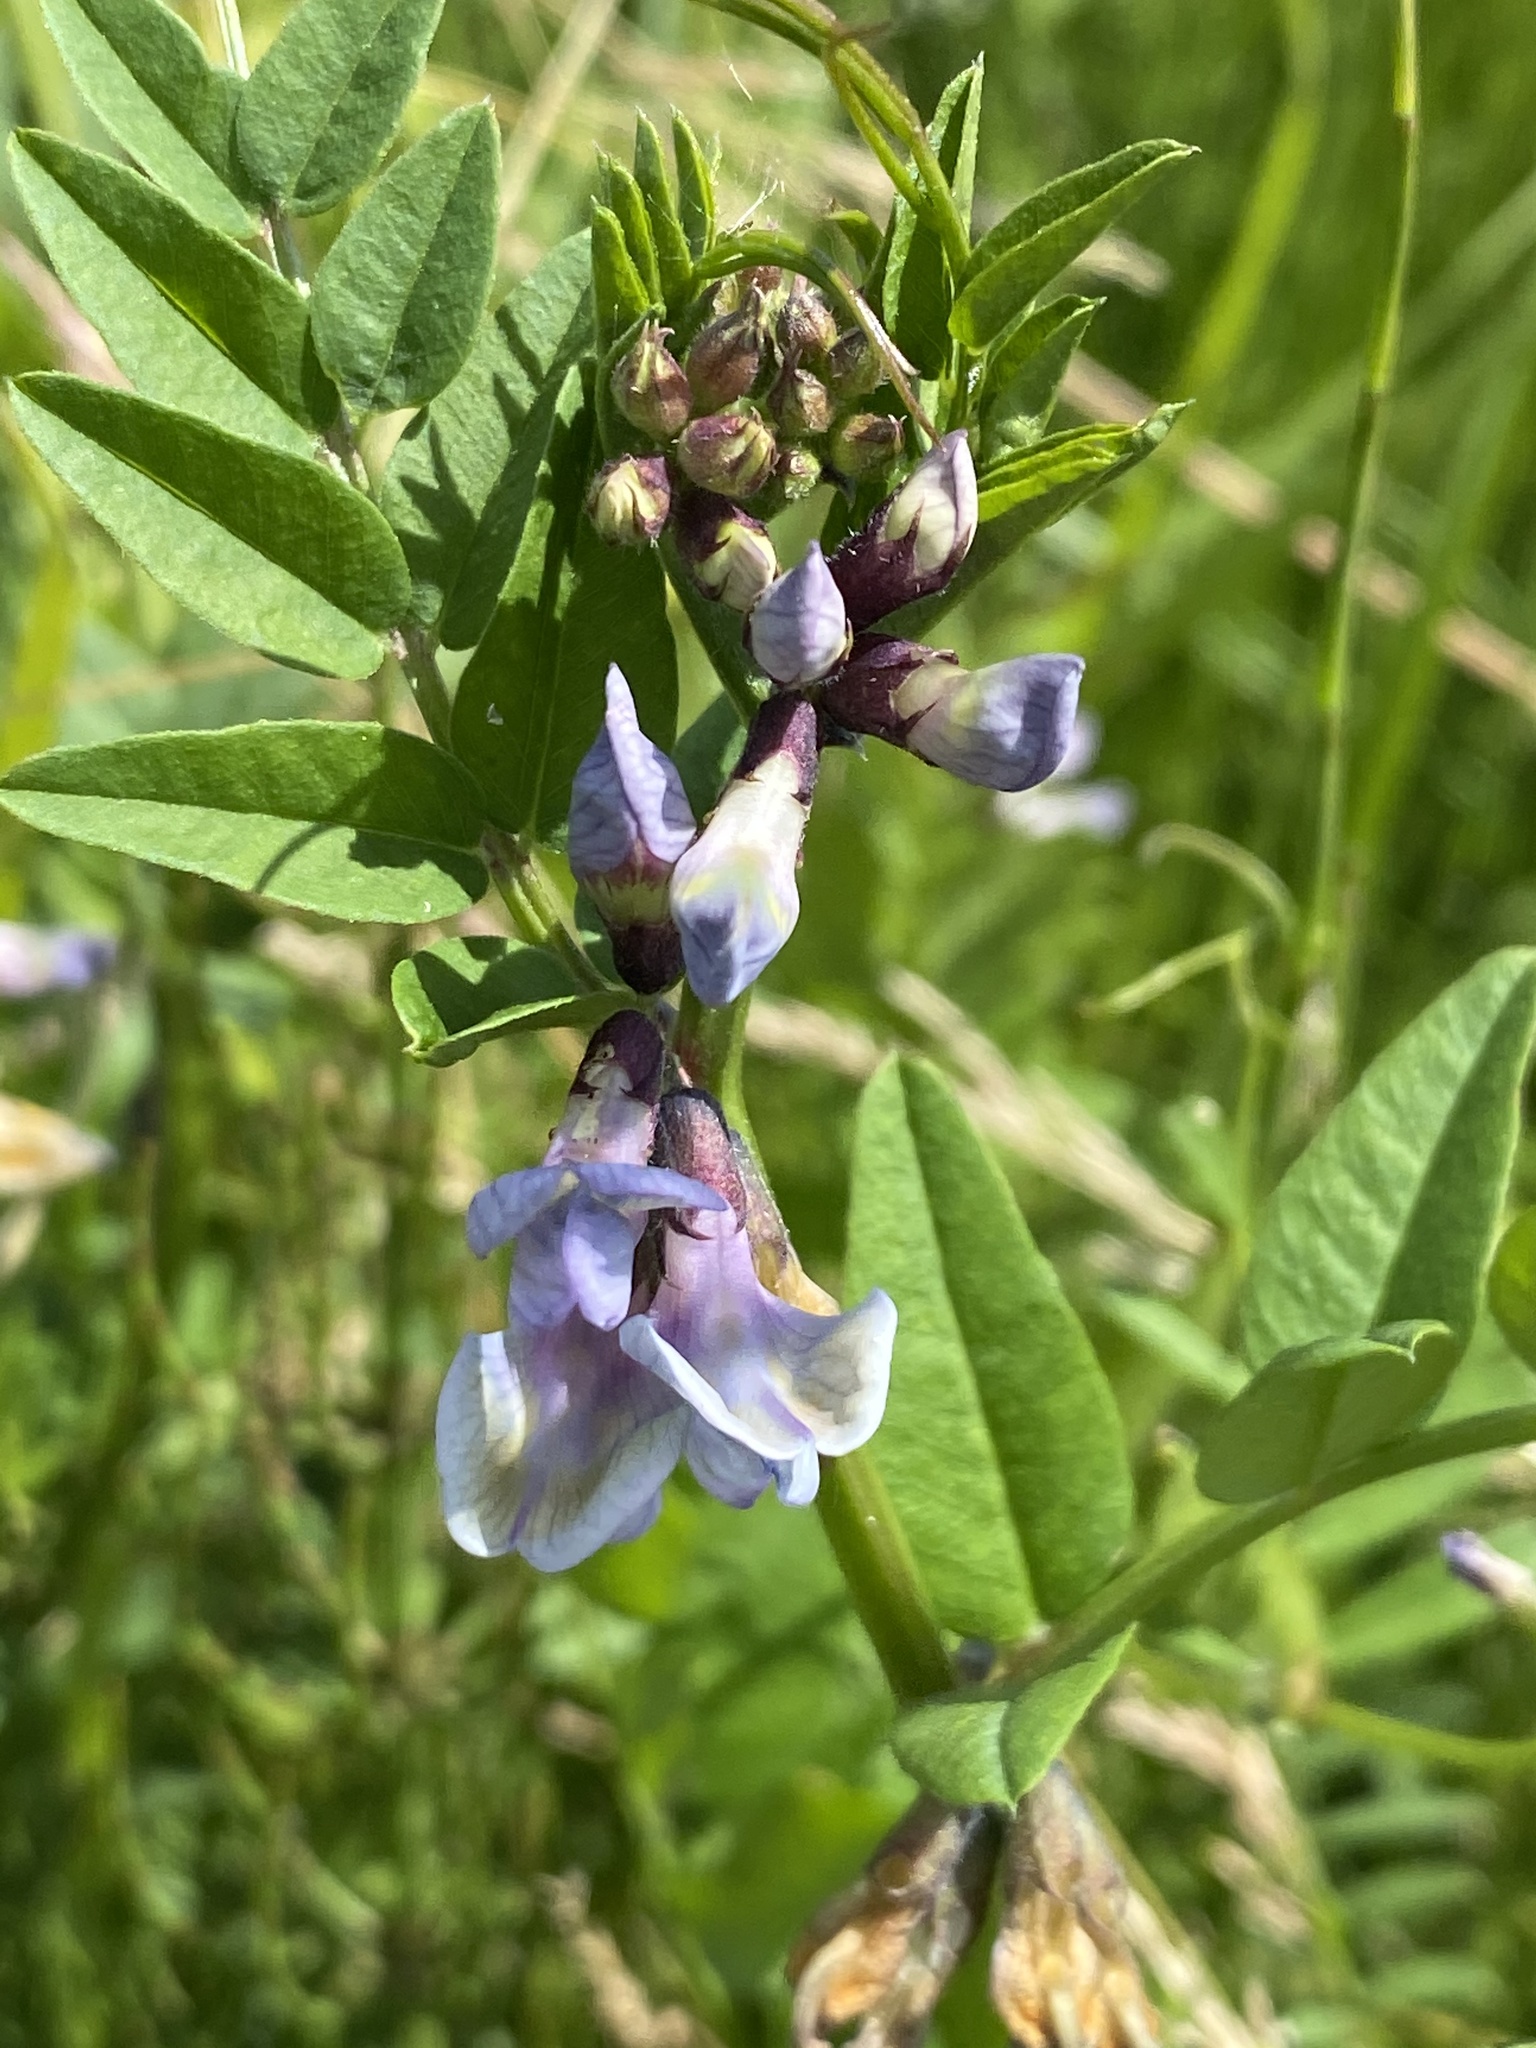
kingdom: Plantae
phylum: Tracheophyta
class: Magnoliopsida
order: Fabales
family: Fabaceae
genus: Vicia
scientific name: Vicia sepium
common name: Bush vetch
